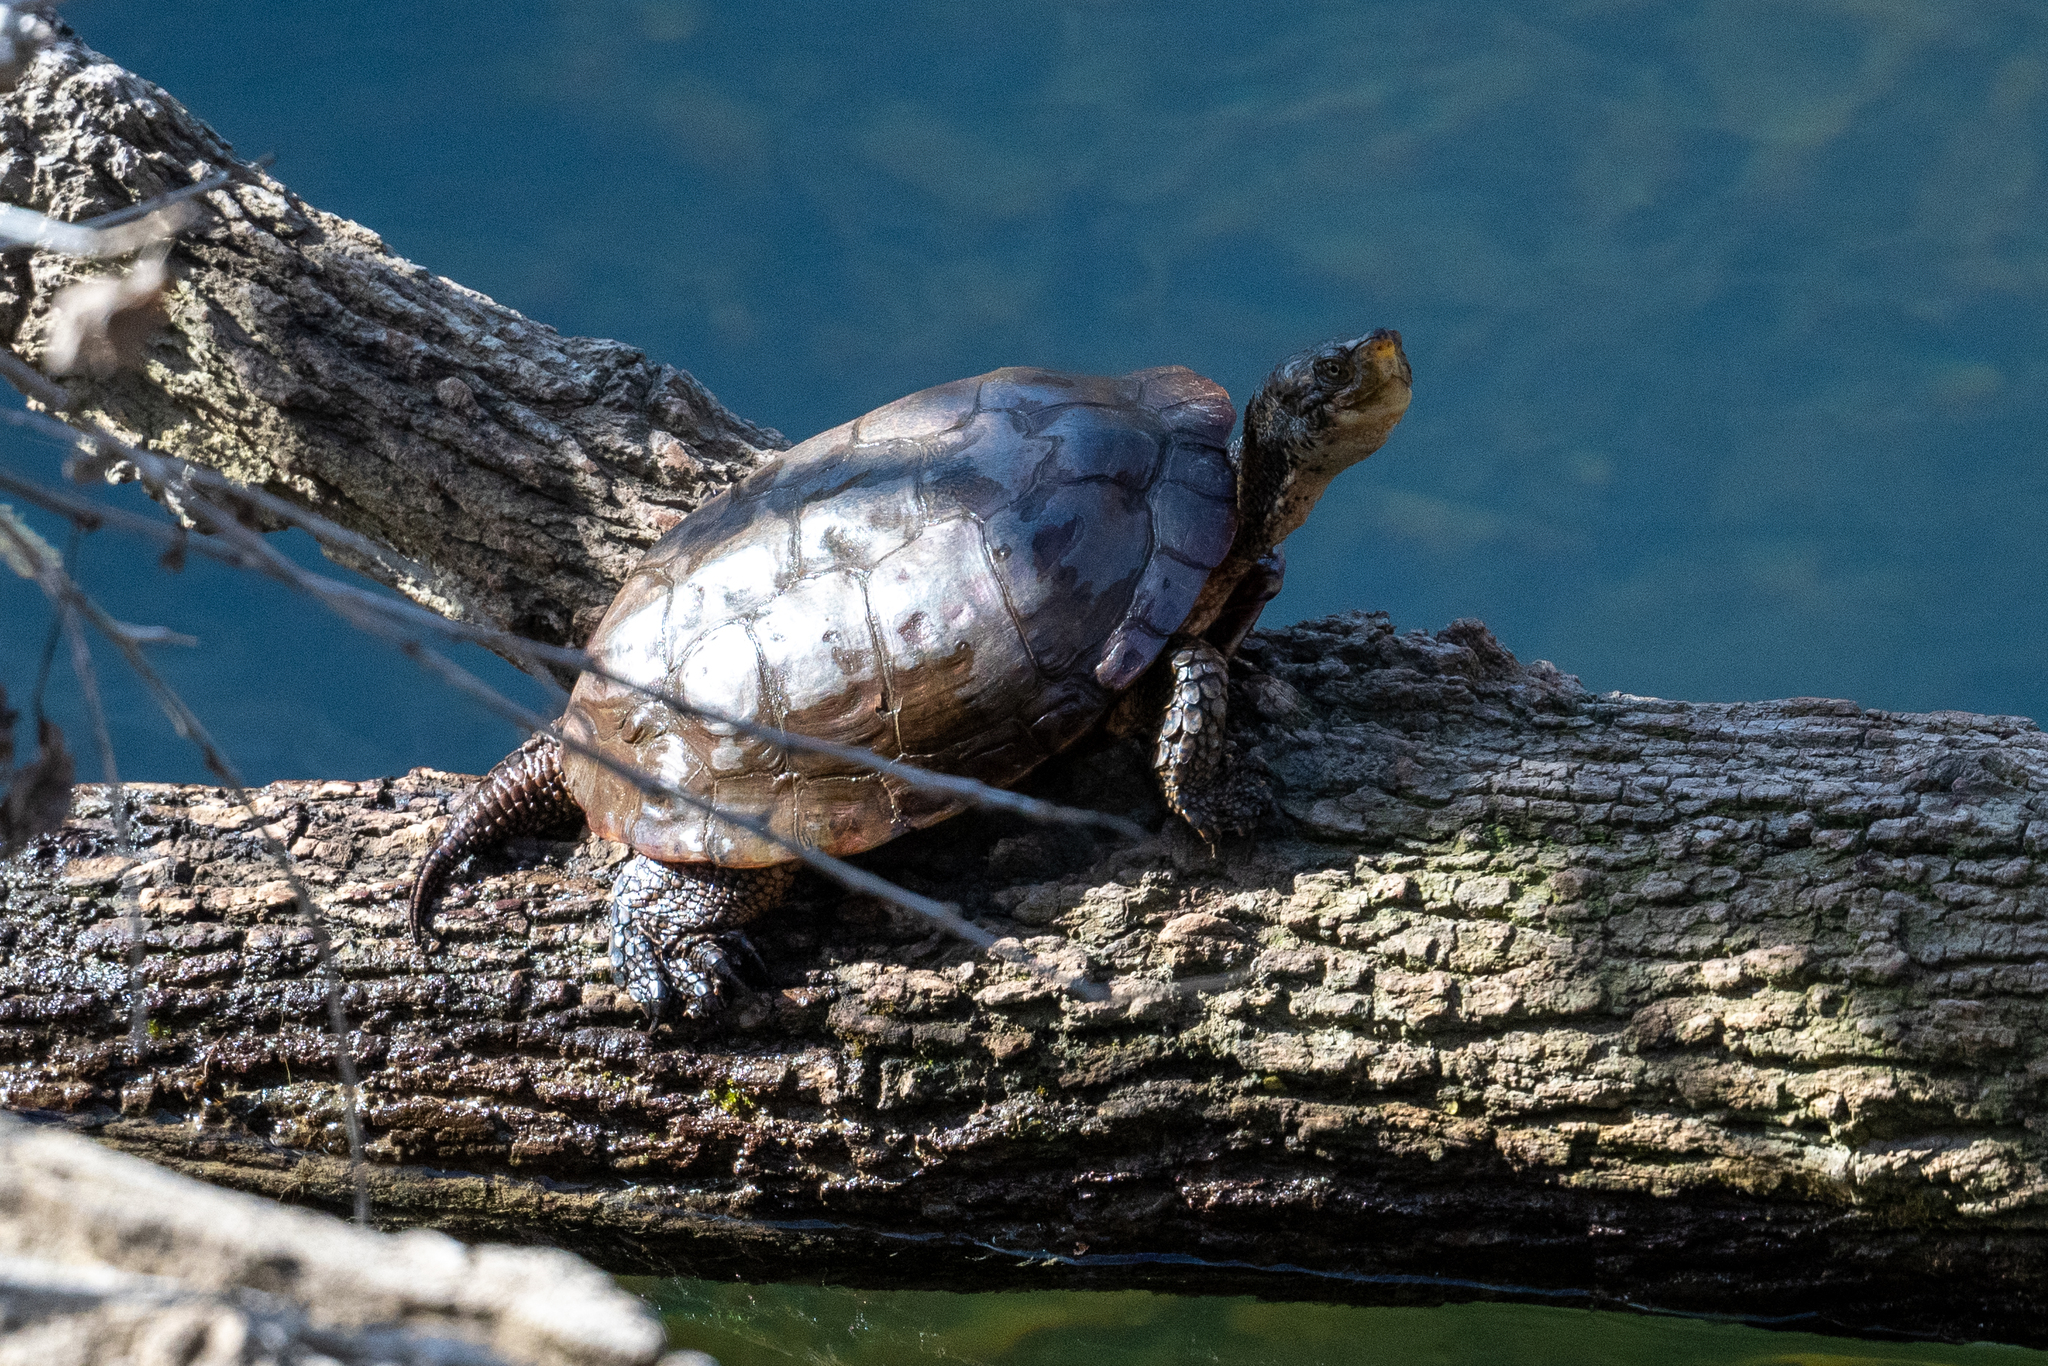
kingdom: Animalia
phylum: Chordata
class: Testudines
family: Emydidae
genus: Actinemys
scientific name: Actinemys marmorata
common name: Western pond turtle
